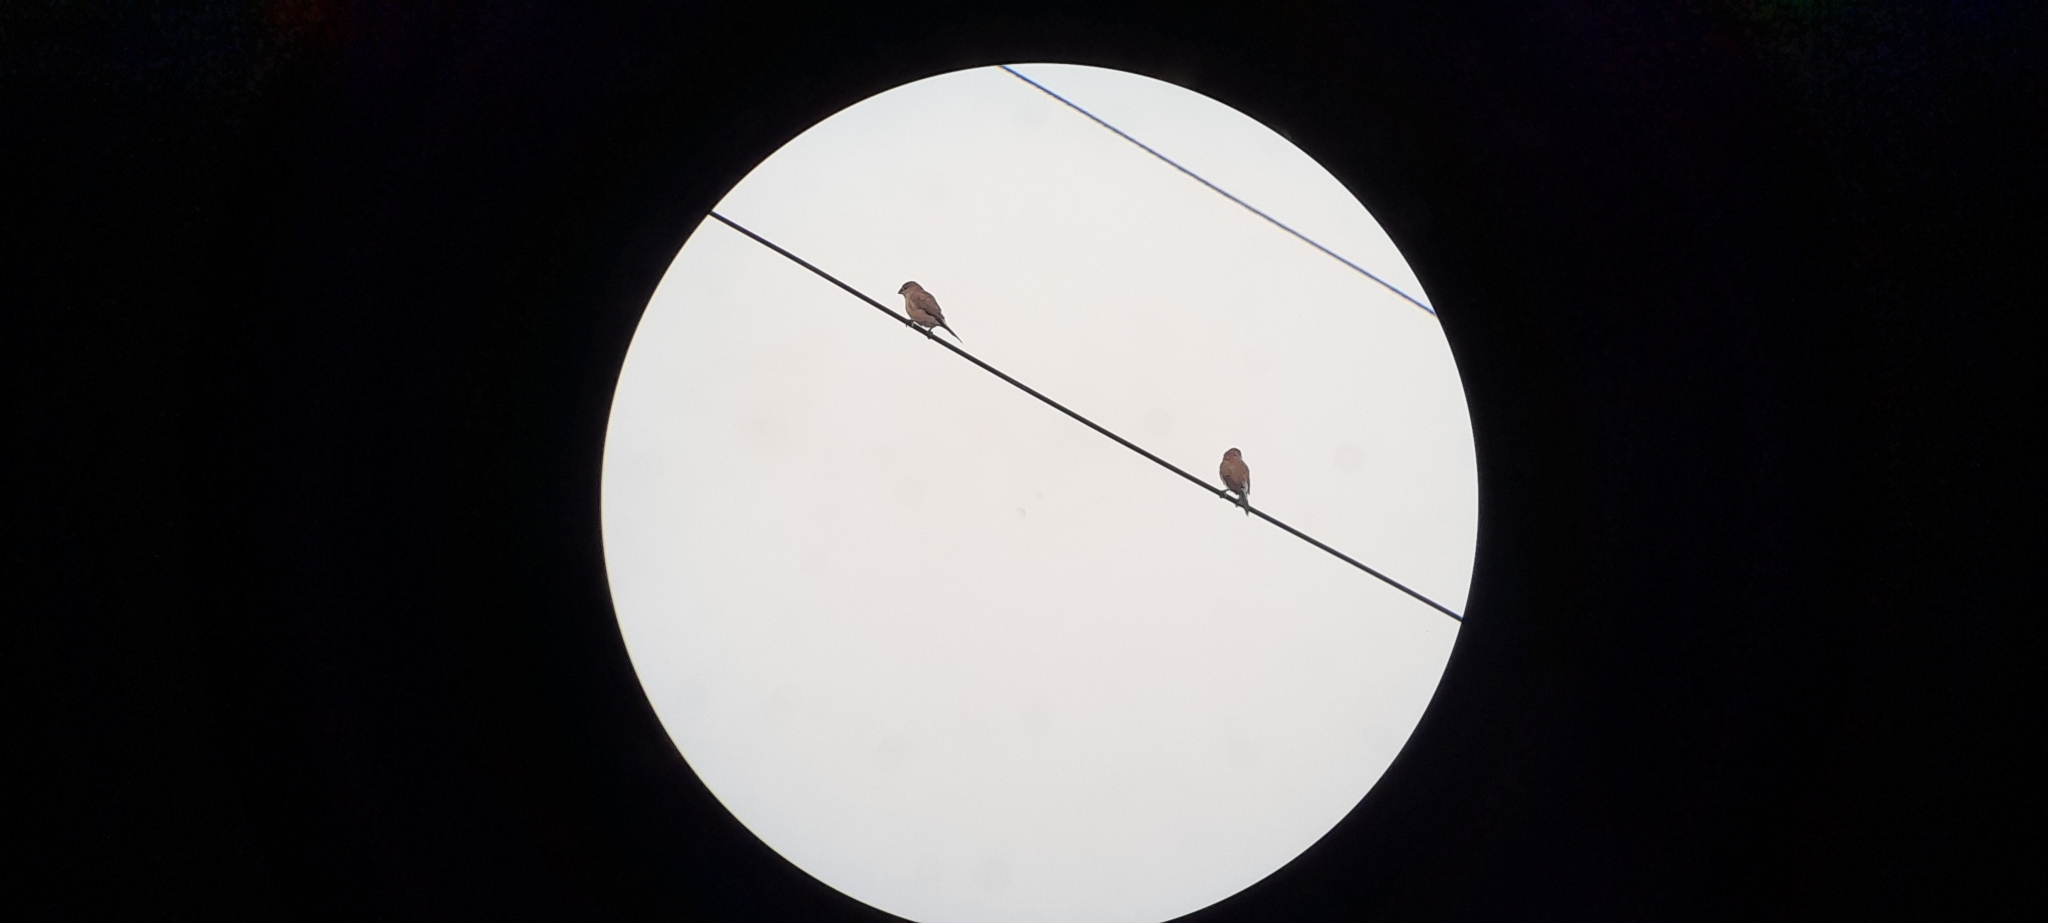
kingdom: Animalia
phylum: Chordata
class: Aves
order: Passeriformes
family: Estrildidae
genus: Euodice
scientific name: Euodice malabarica
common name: Indian silverbill
